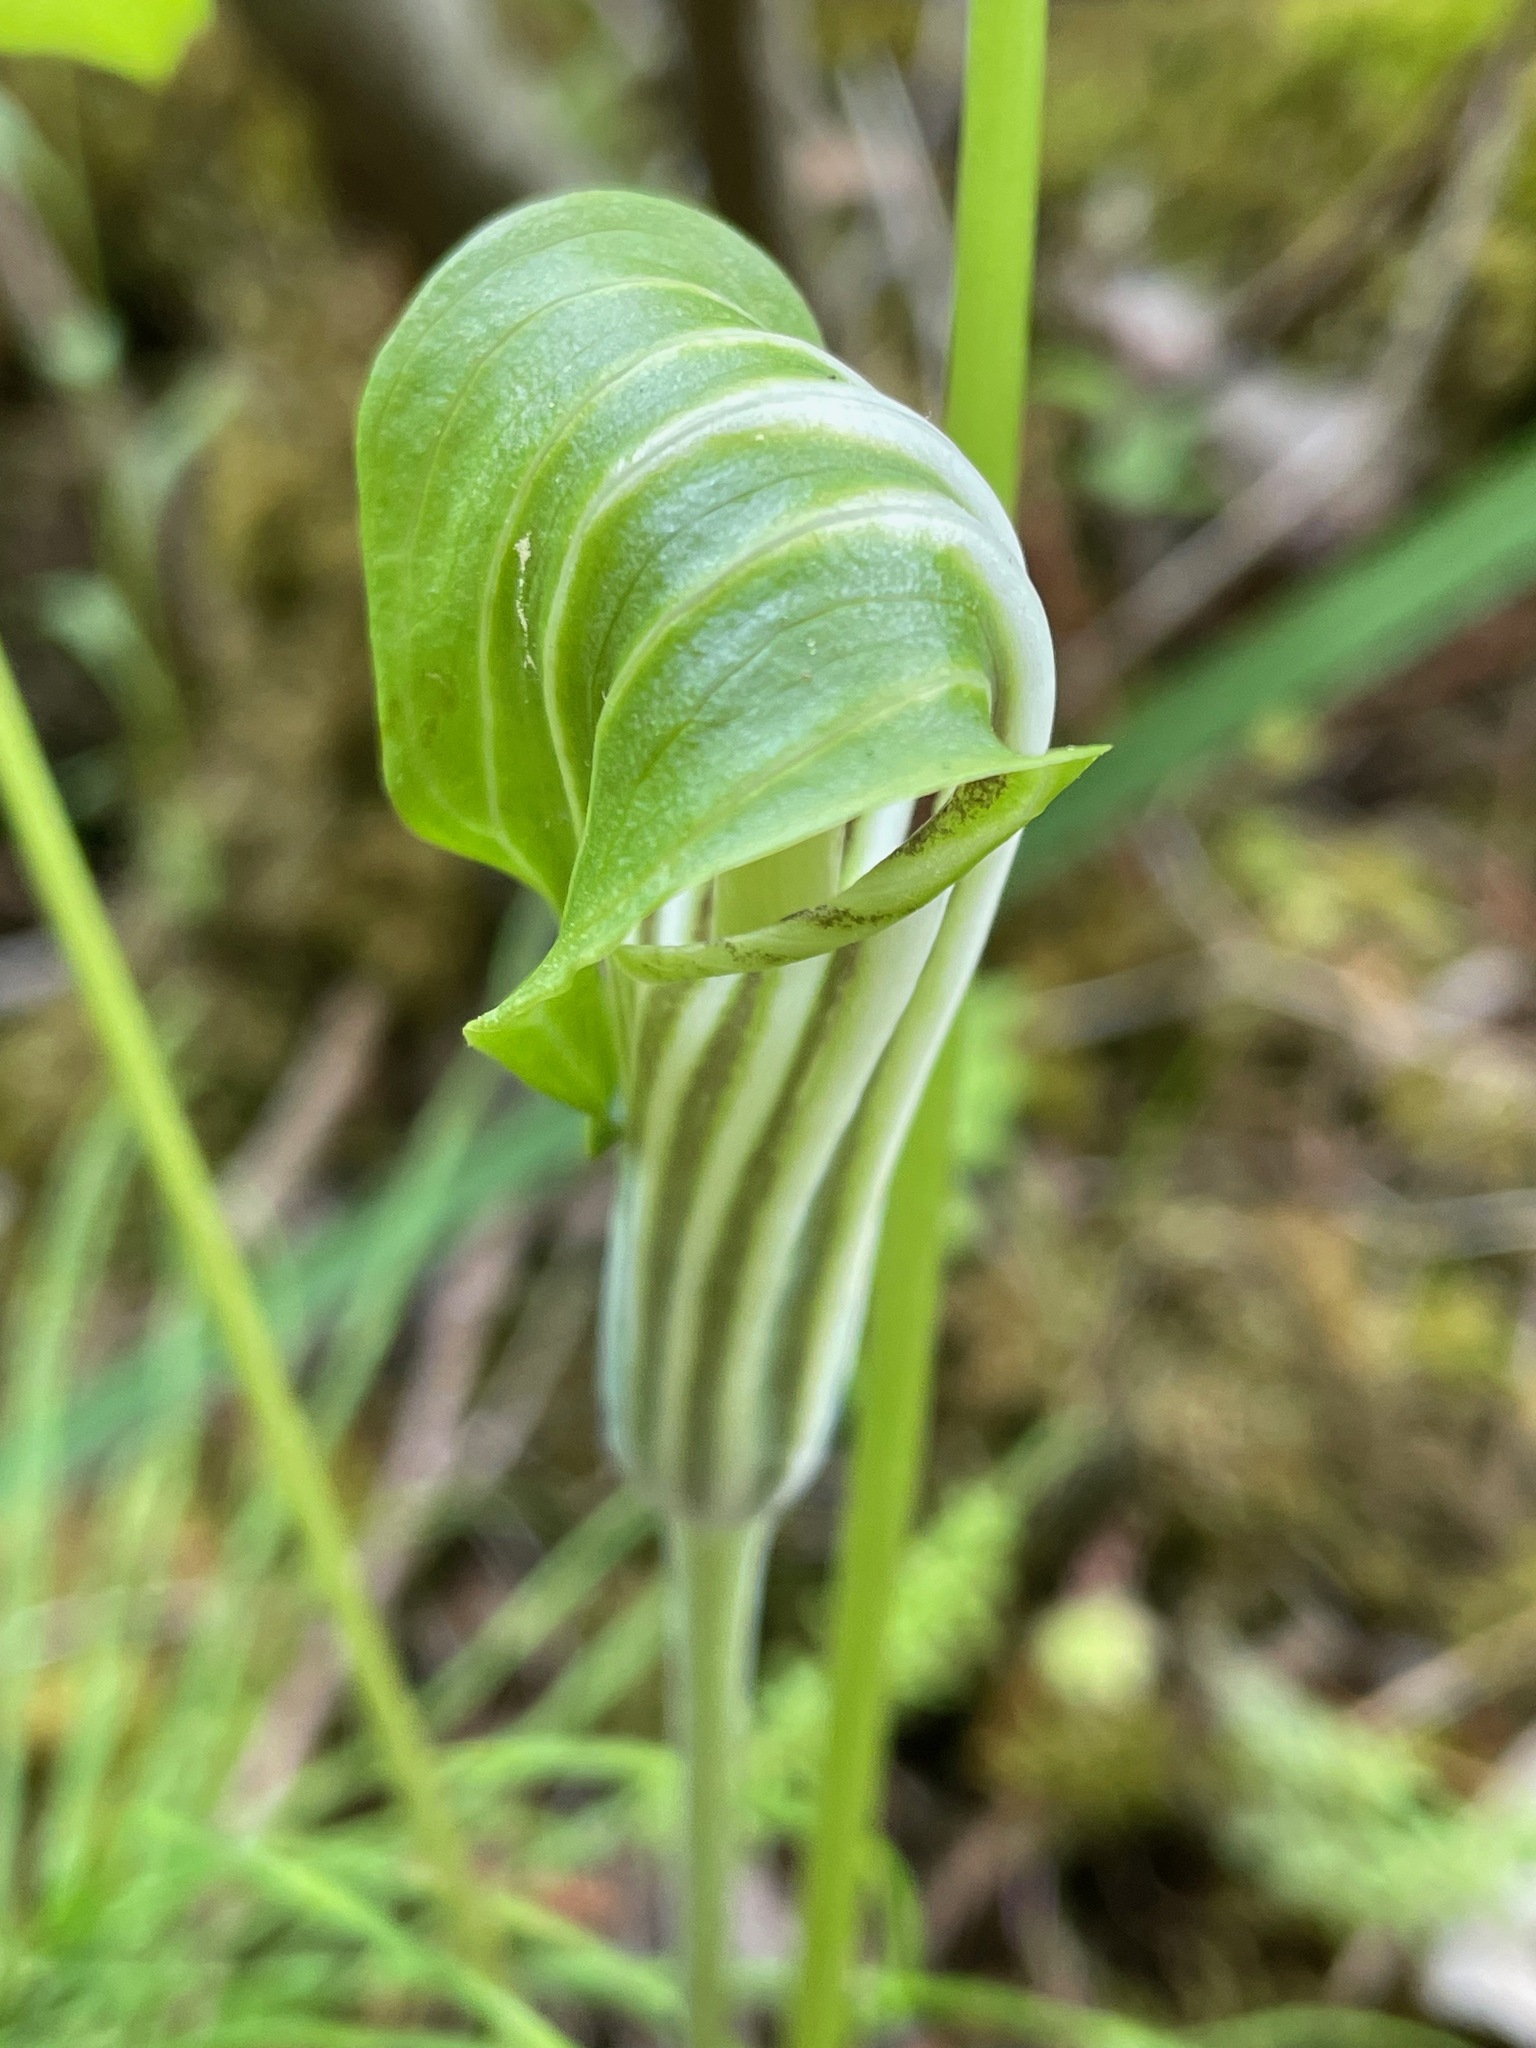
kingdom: Plantae
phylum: Tracheophyta
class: Liliopsida
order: Alismatales
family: Araceae
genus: Arisaema
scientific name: Arisaema stewardsonii
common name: Swamp jack-in-the-pulpit
